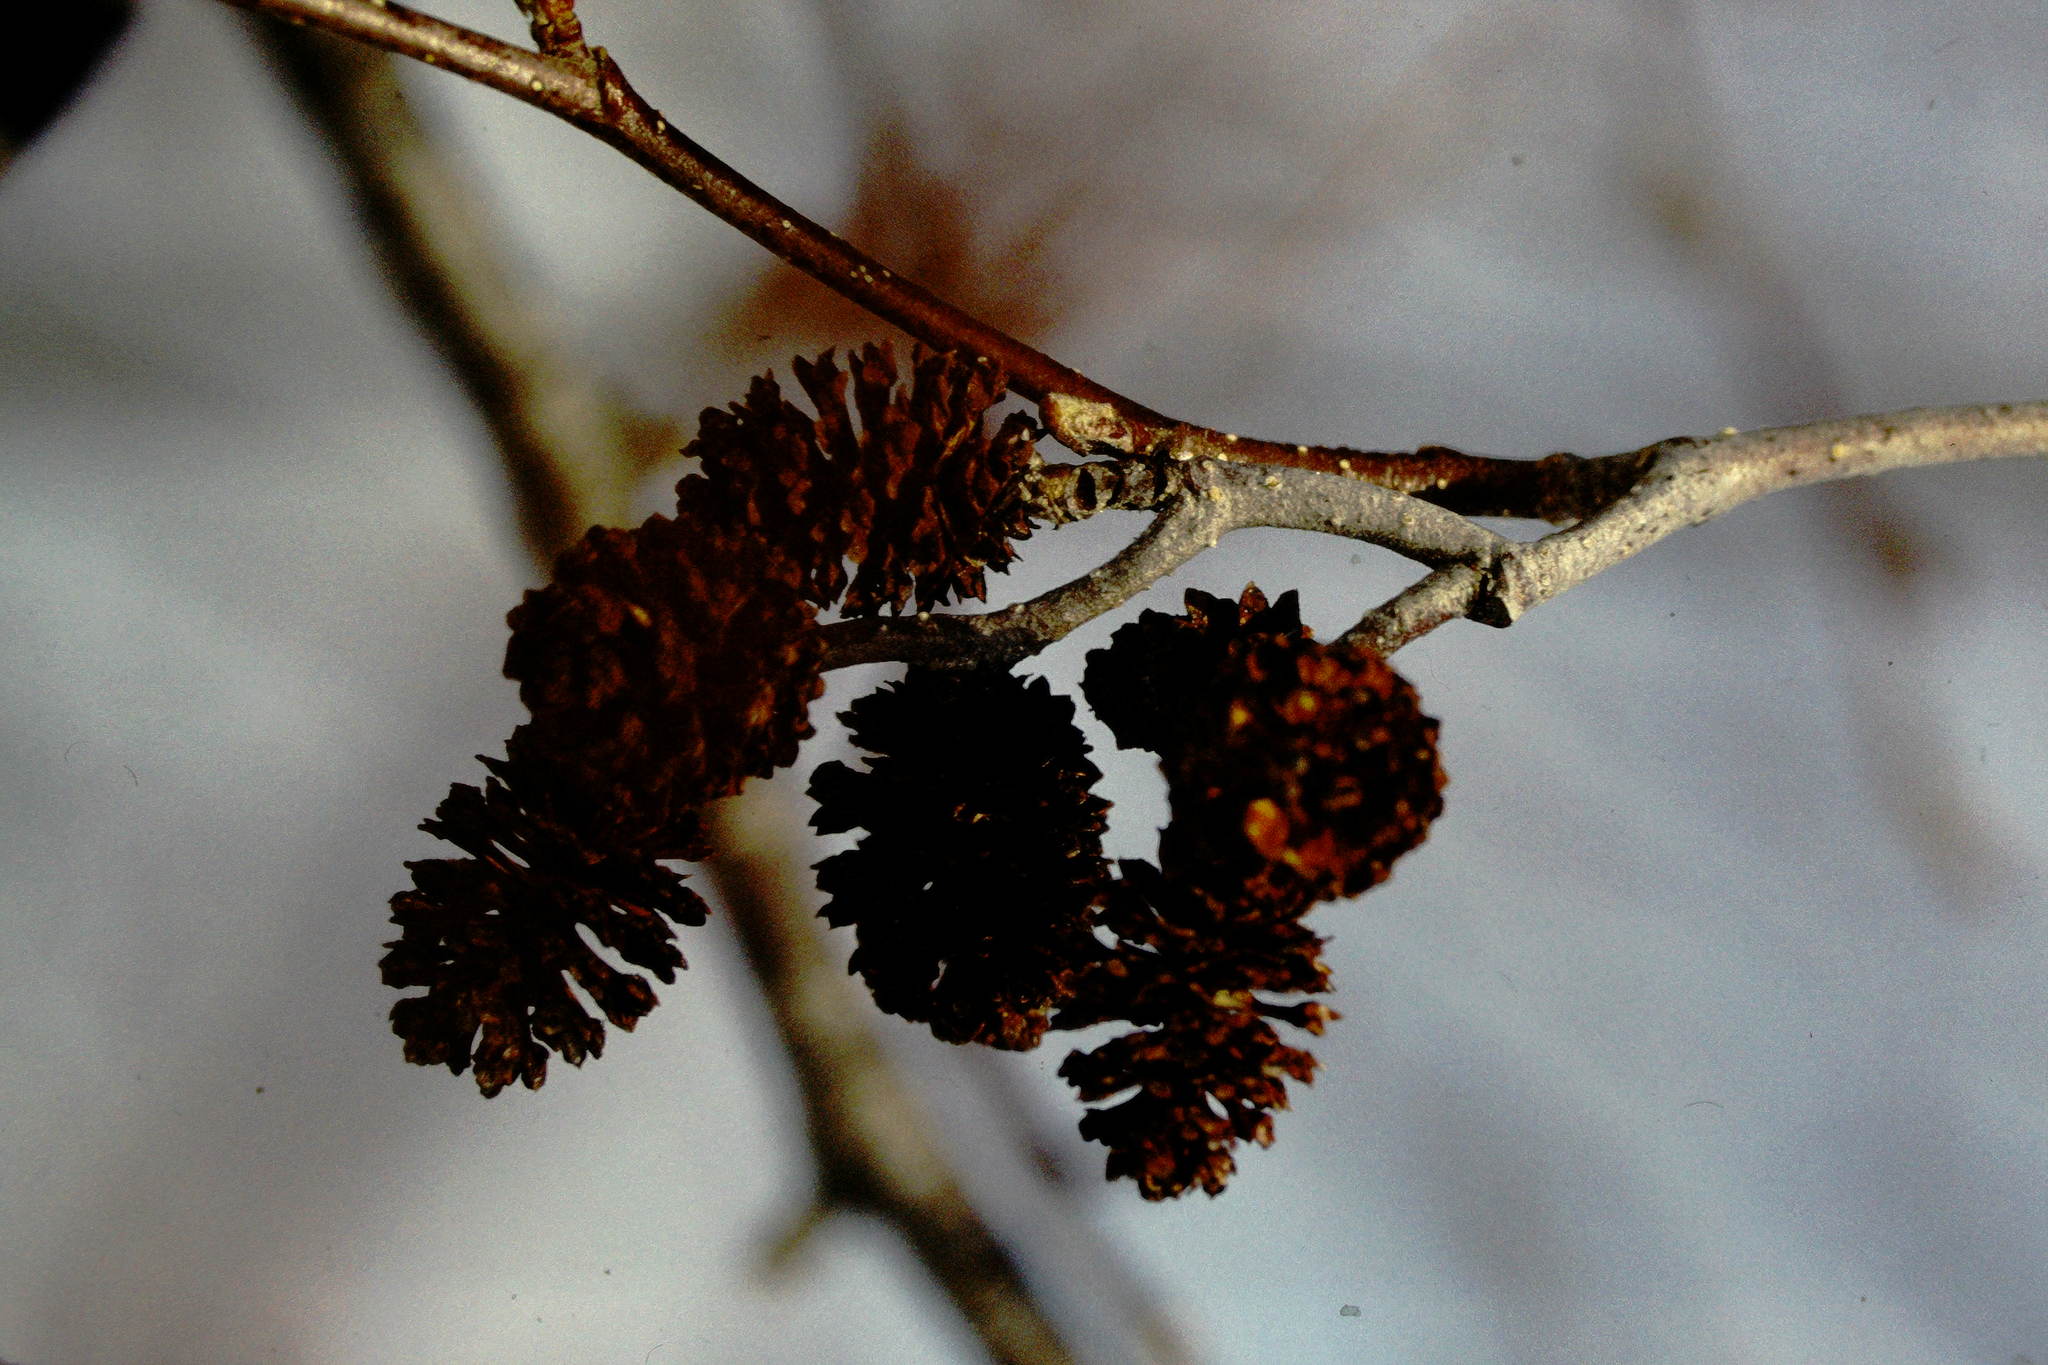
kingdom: Plantae
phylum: Tracheophyta
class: Magnoliopsida
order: Fagales
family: Betulaceae
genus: Alnus
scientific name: Alnus incana
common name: Grey alder
